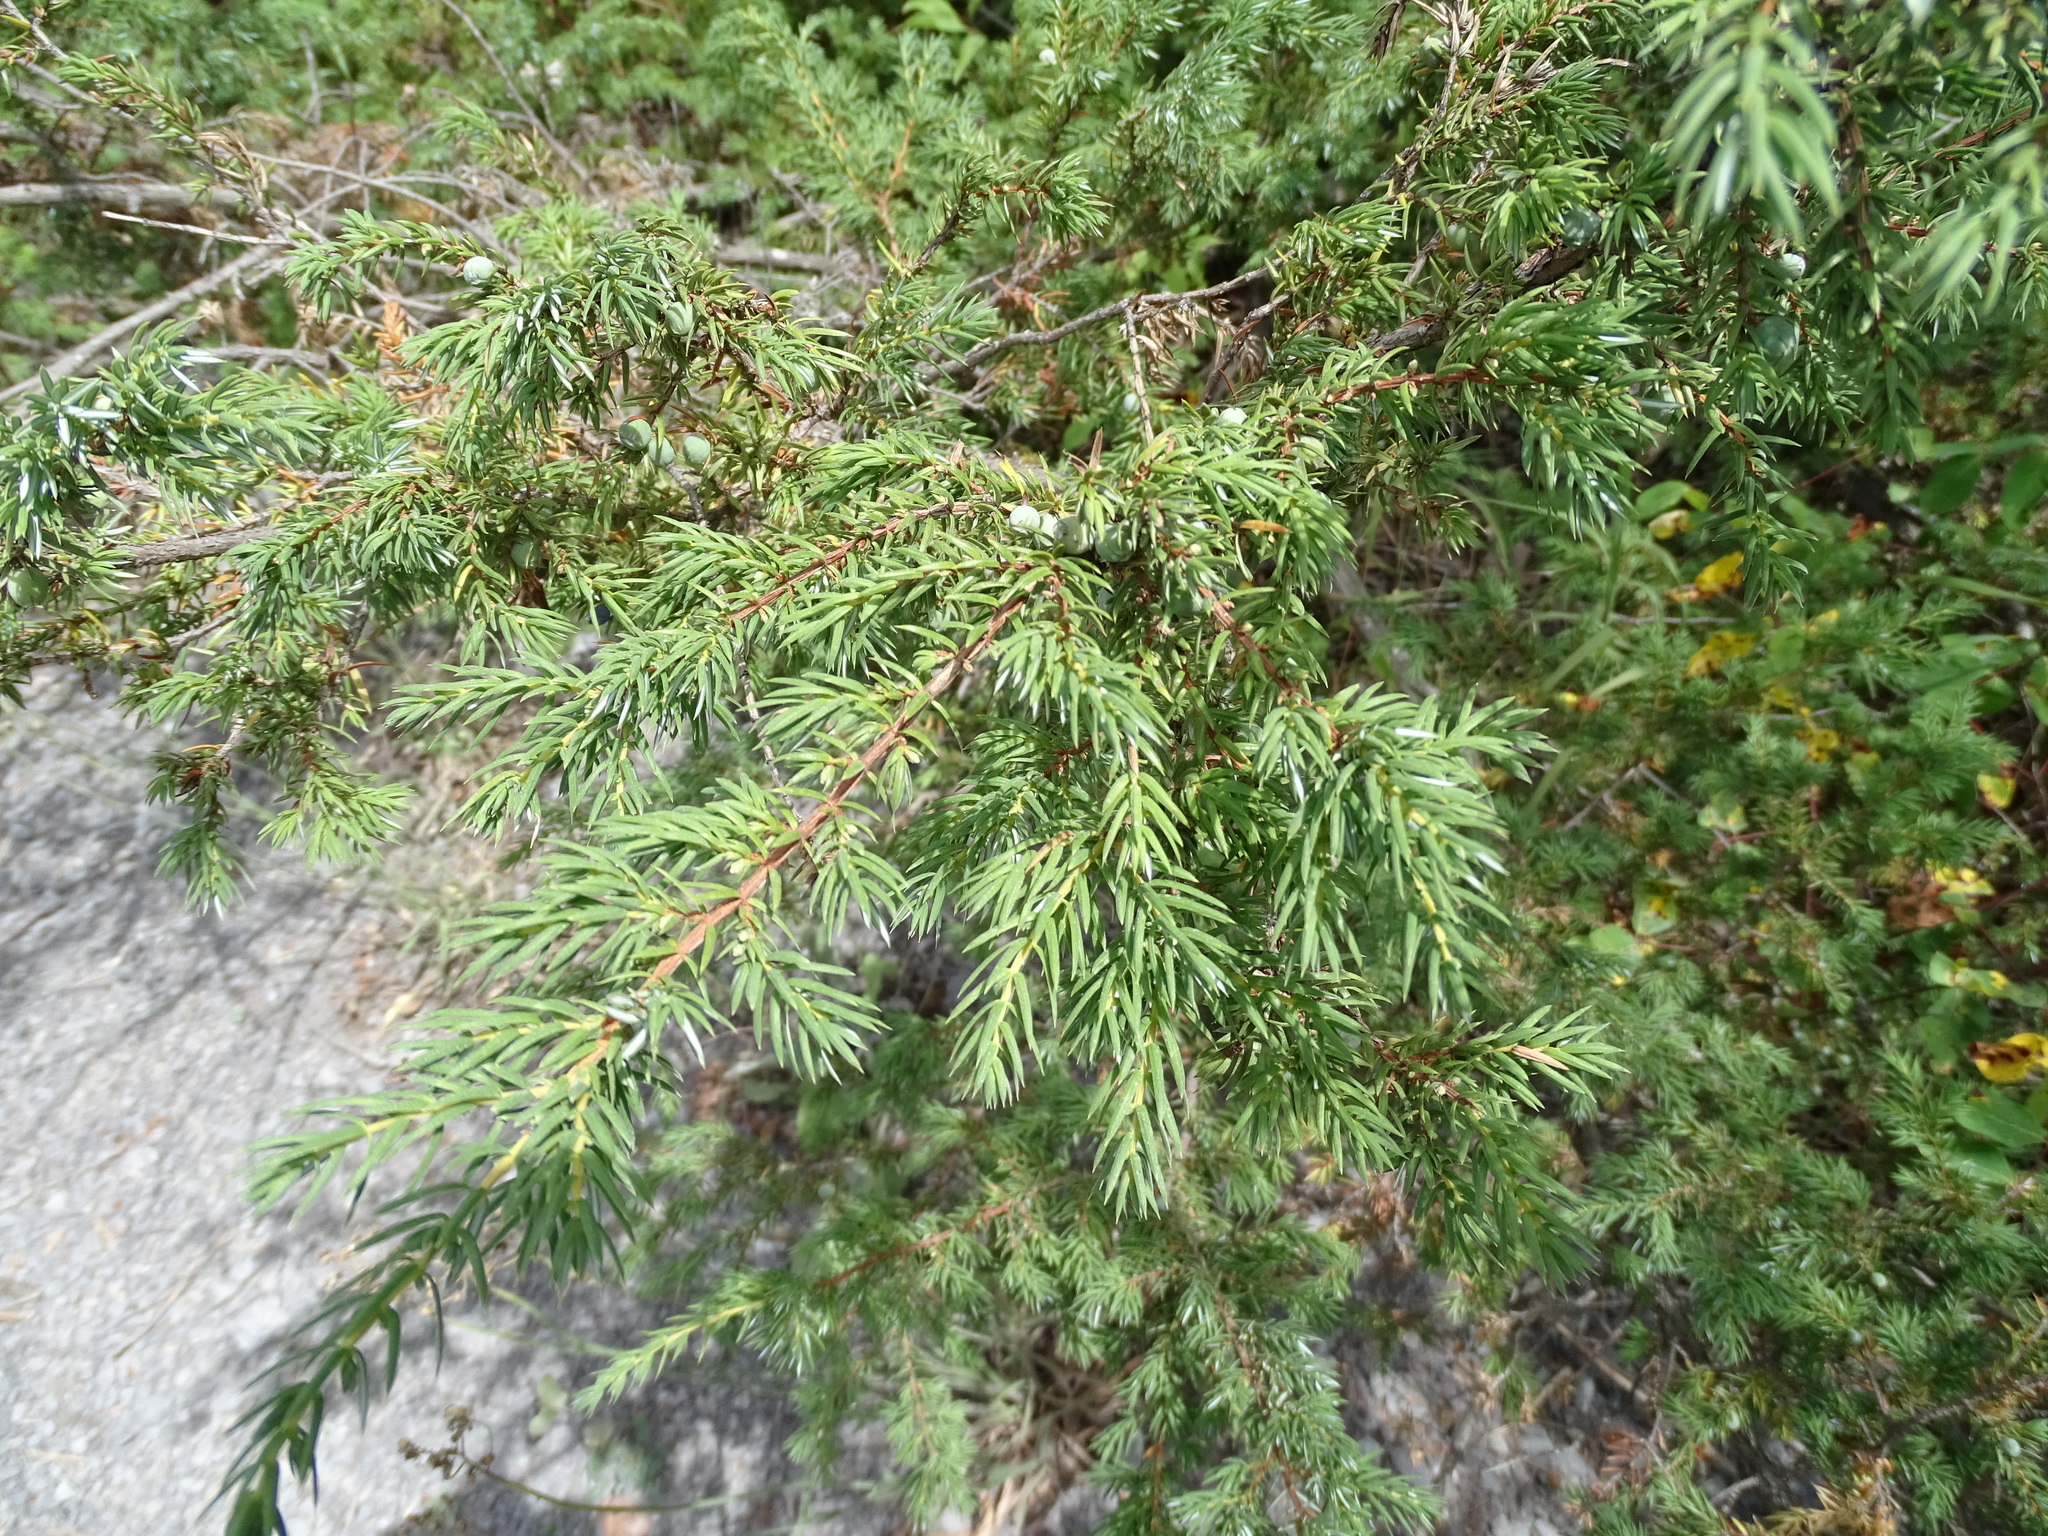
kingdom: Plantae
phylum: Tracheophyta
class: Pinopsida
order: Pinales
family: Cupressaceae
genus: Juniperus
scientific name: Juniperus communis
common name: Common juniper
